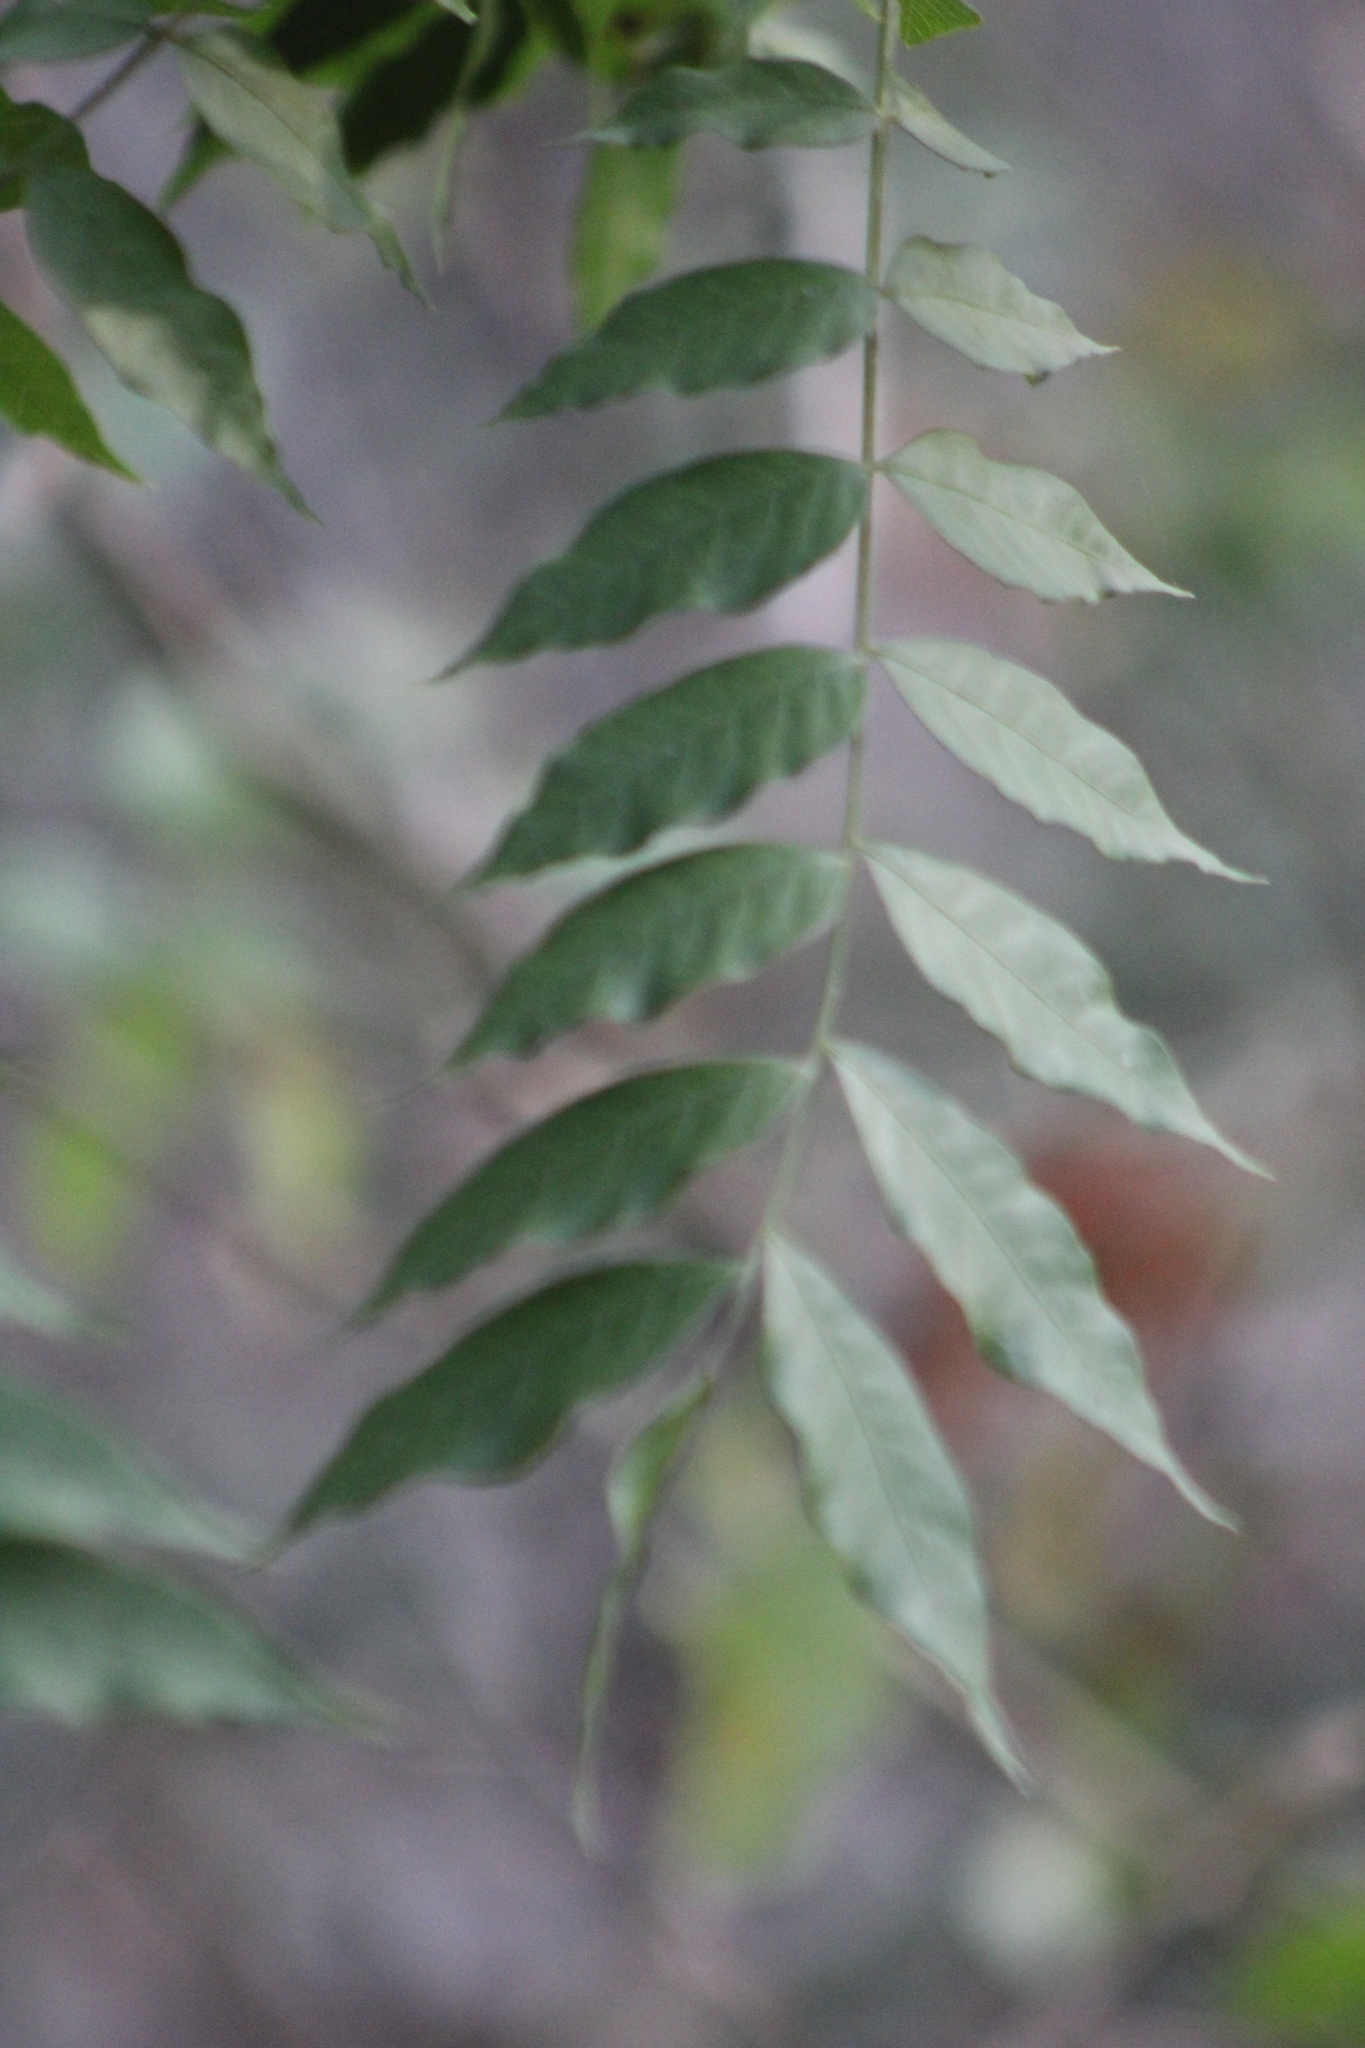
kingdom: Plantae
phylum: Tracheophyta
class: Magnoliopsida
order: Sapindales
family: Anacardiaceae
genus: Pistacia
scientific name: Pistacia chinensis
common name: Chinese pistache
